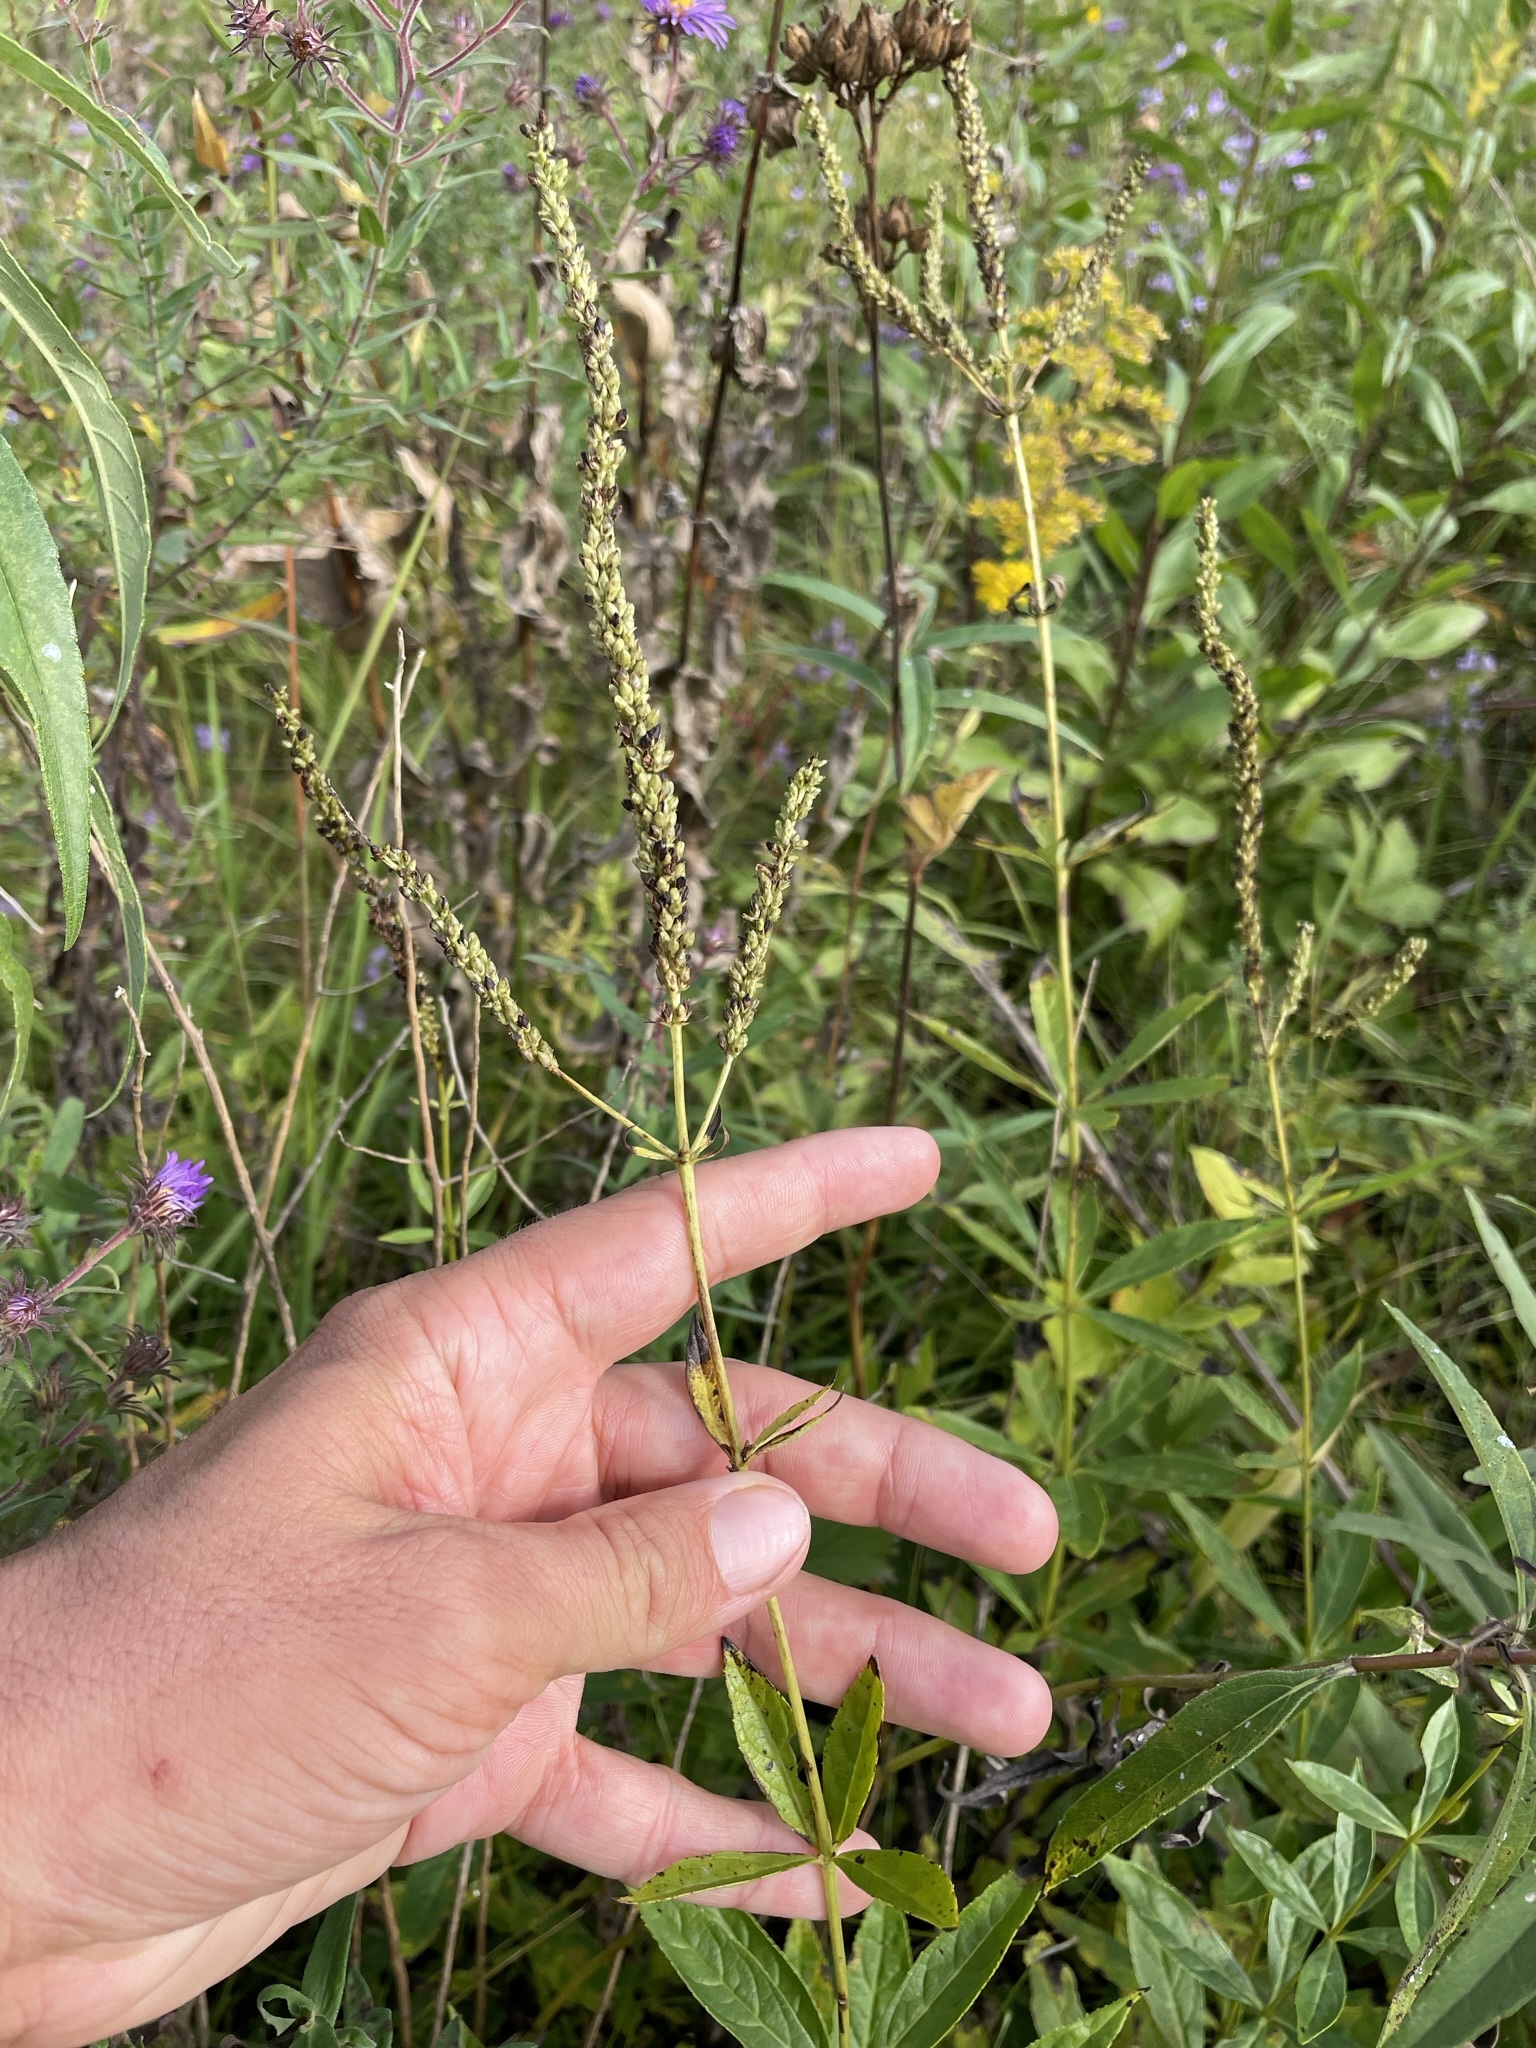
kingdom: Plantae
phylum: Tracheophyta
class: Magnoliopsida
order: Lamiales
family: Plantaginaceae
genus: Veronicastrum
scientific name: Veronicastrum virginicum
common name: Blackroot
